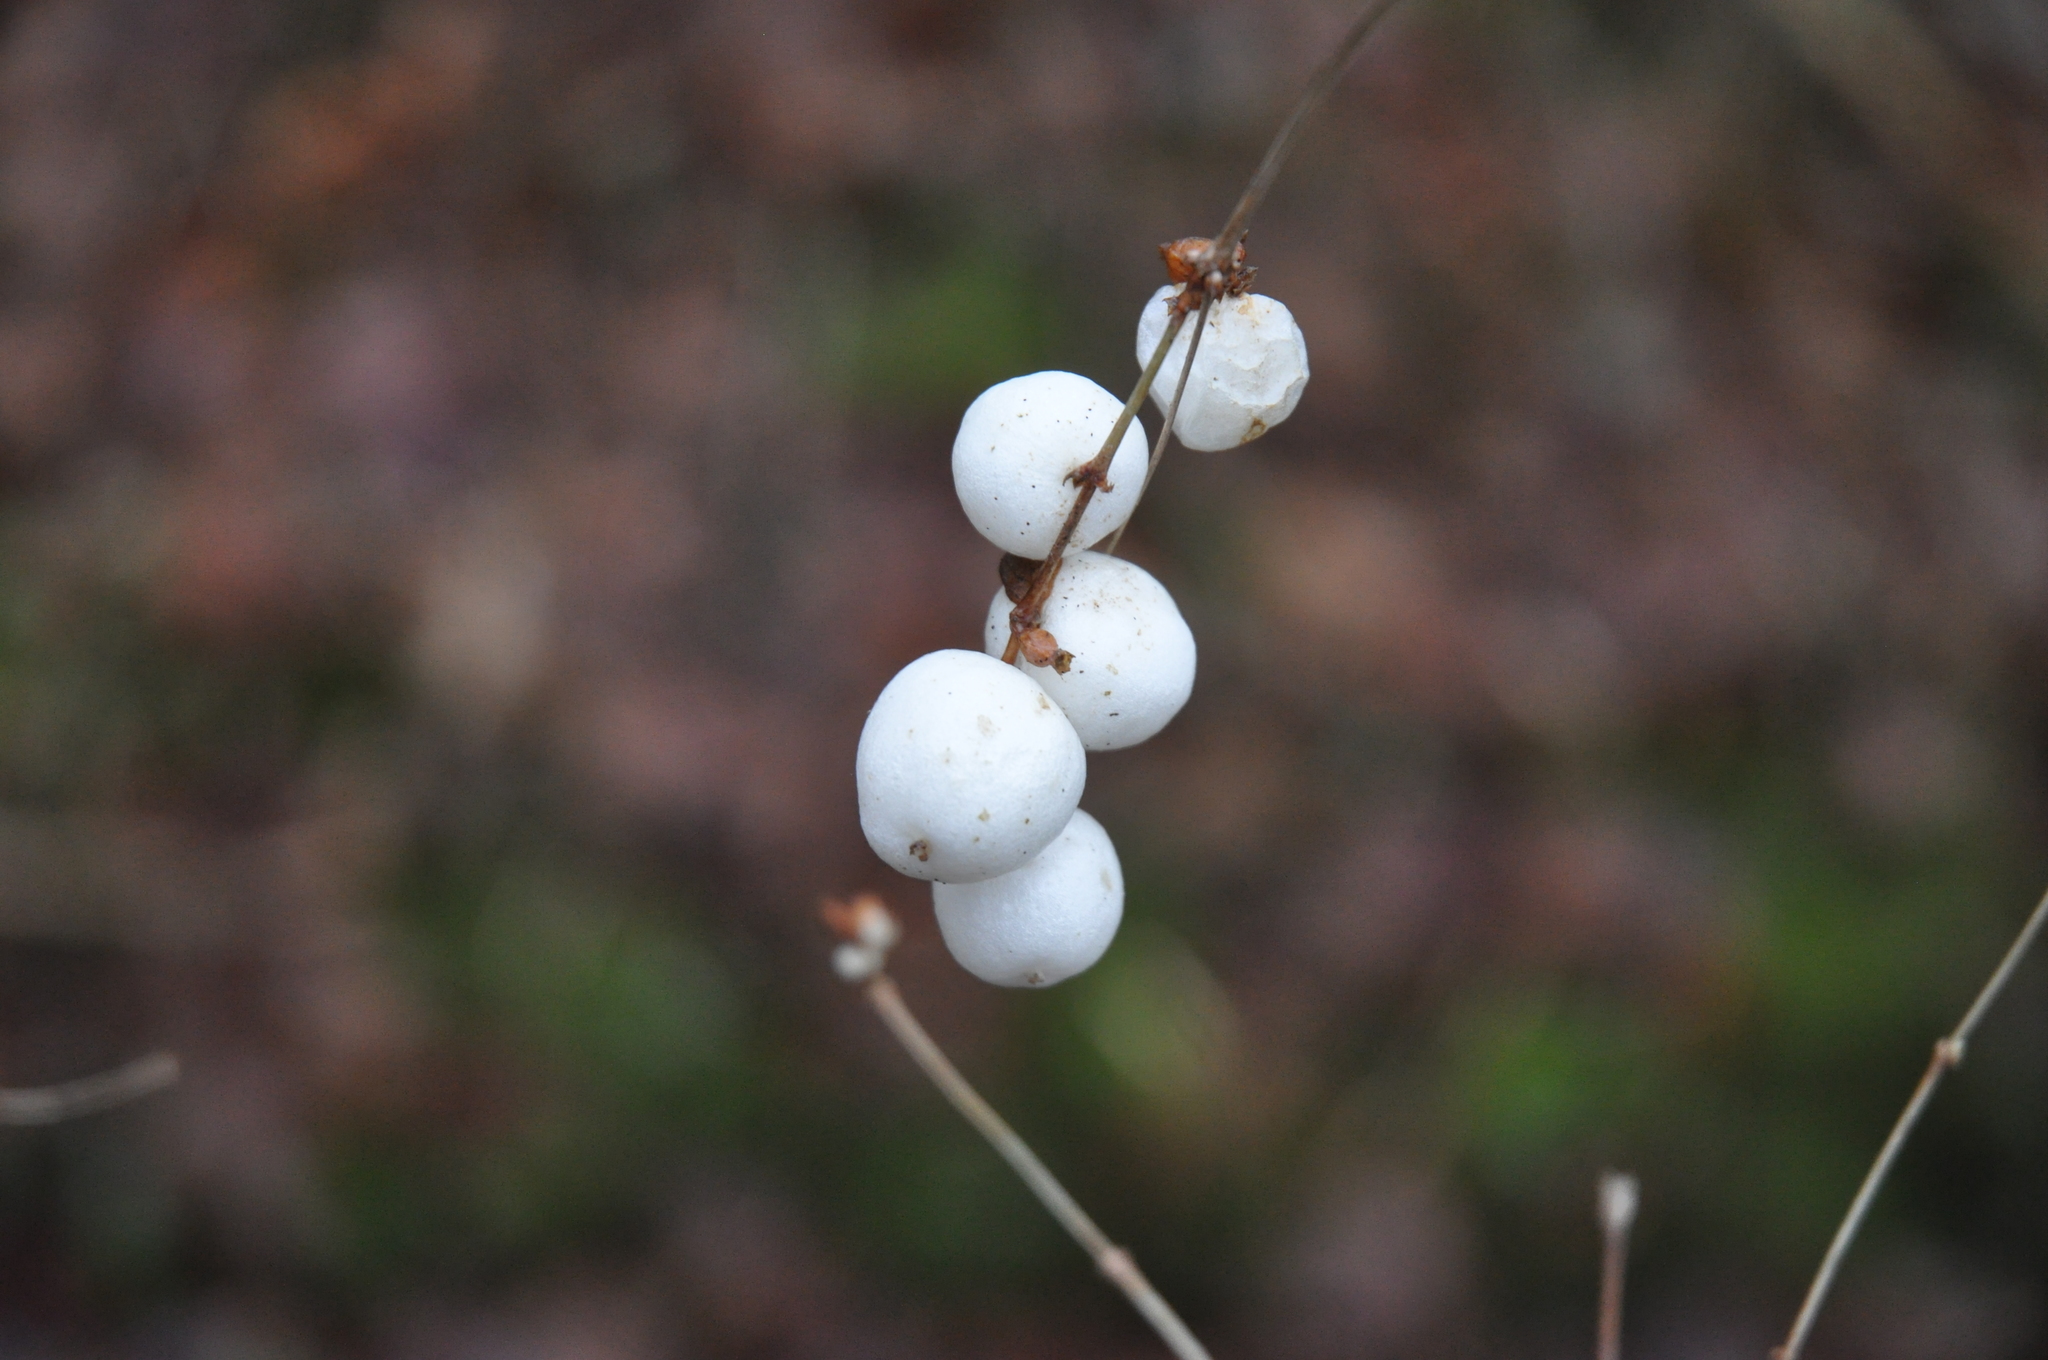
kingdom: Plantae
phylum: Tracheophyta
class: Magnoliopsida
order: Dipsacales
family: Caprifoliaceae
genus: Symphoricarpos
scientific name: Symphoricarpos albus
